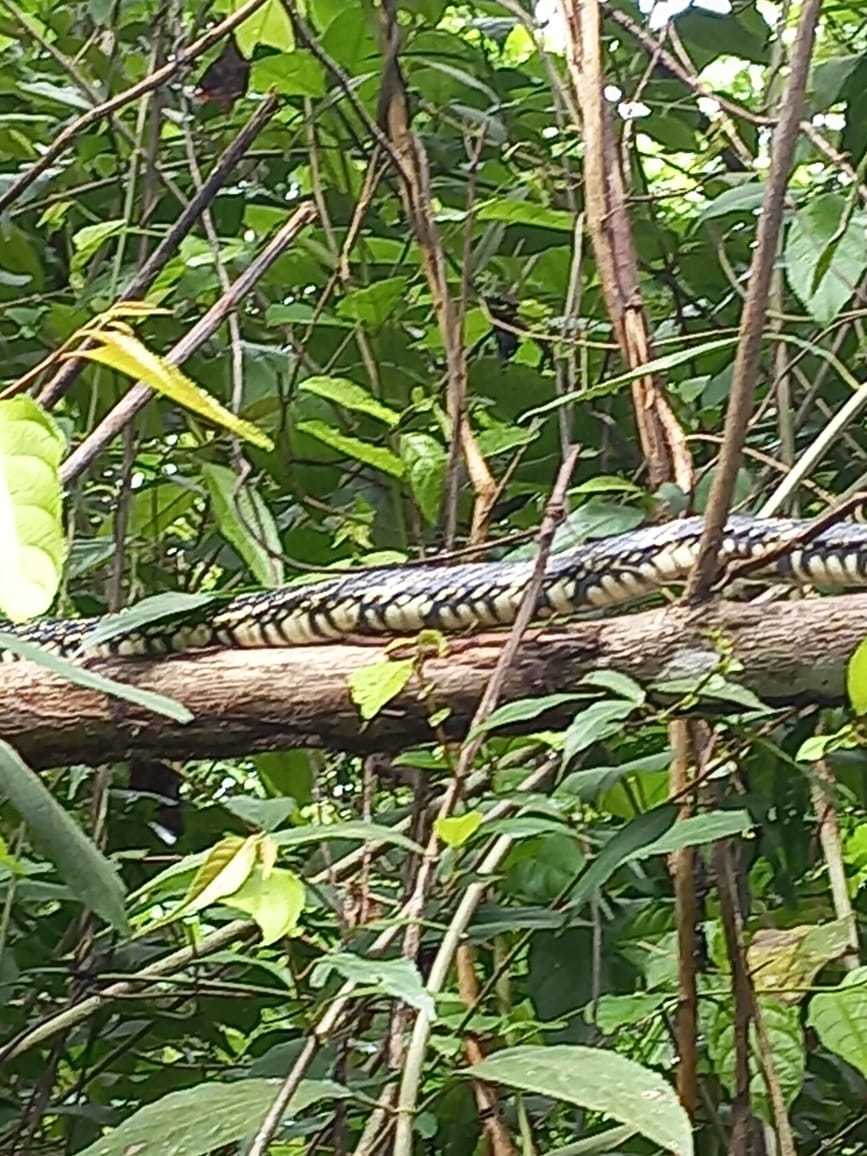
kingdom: Animalia
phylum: Chordata
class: Squamata
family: Colubridae
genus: Spilotes
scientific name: Spilotes pullatus
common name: Chicken snake
